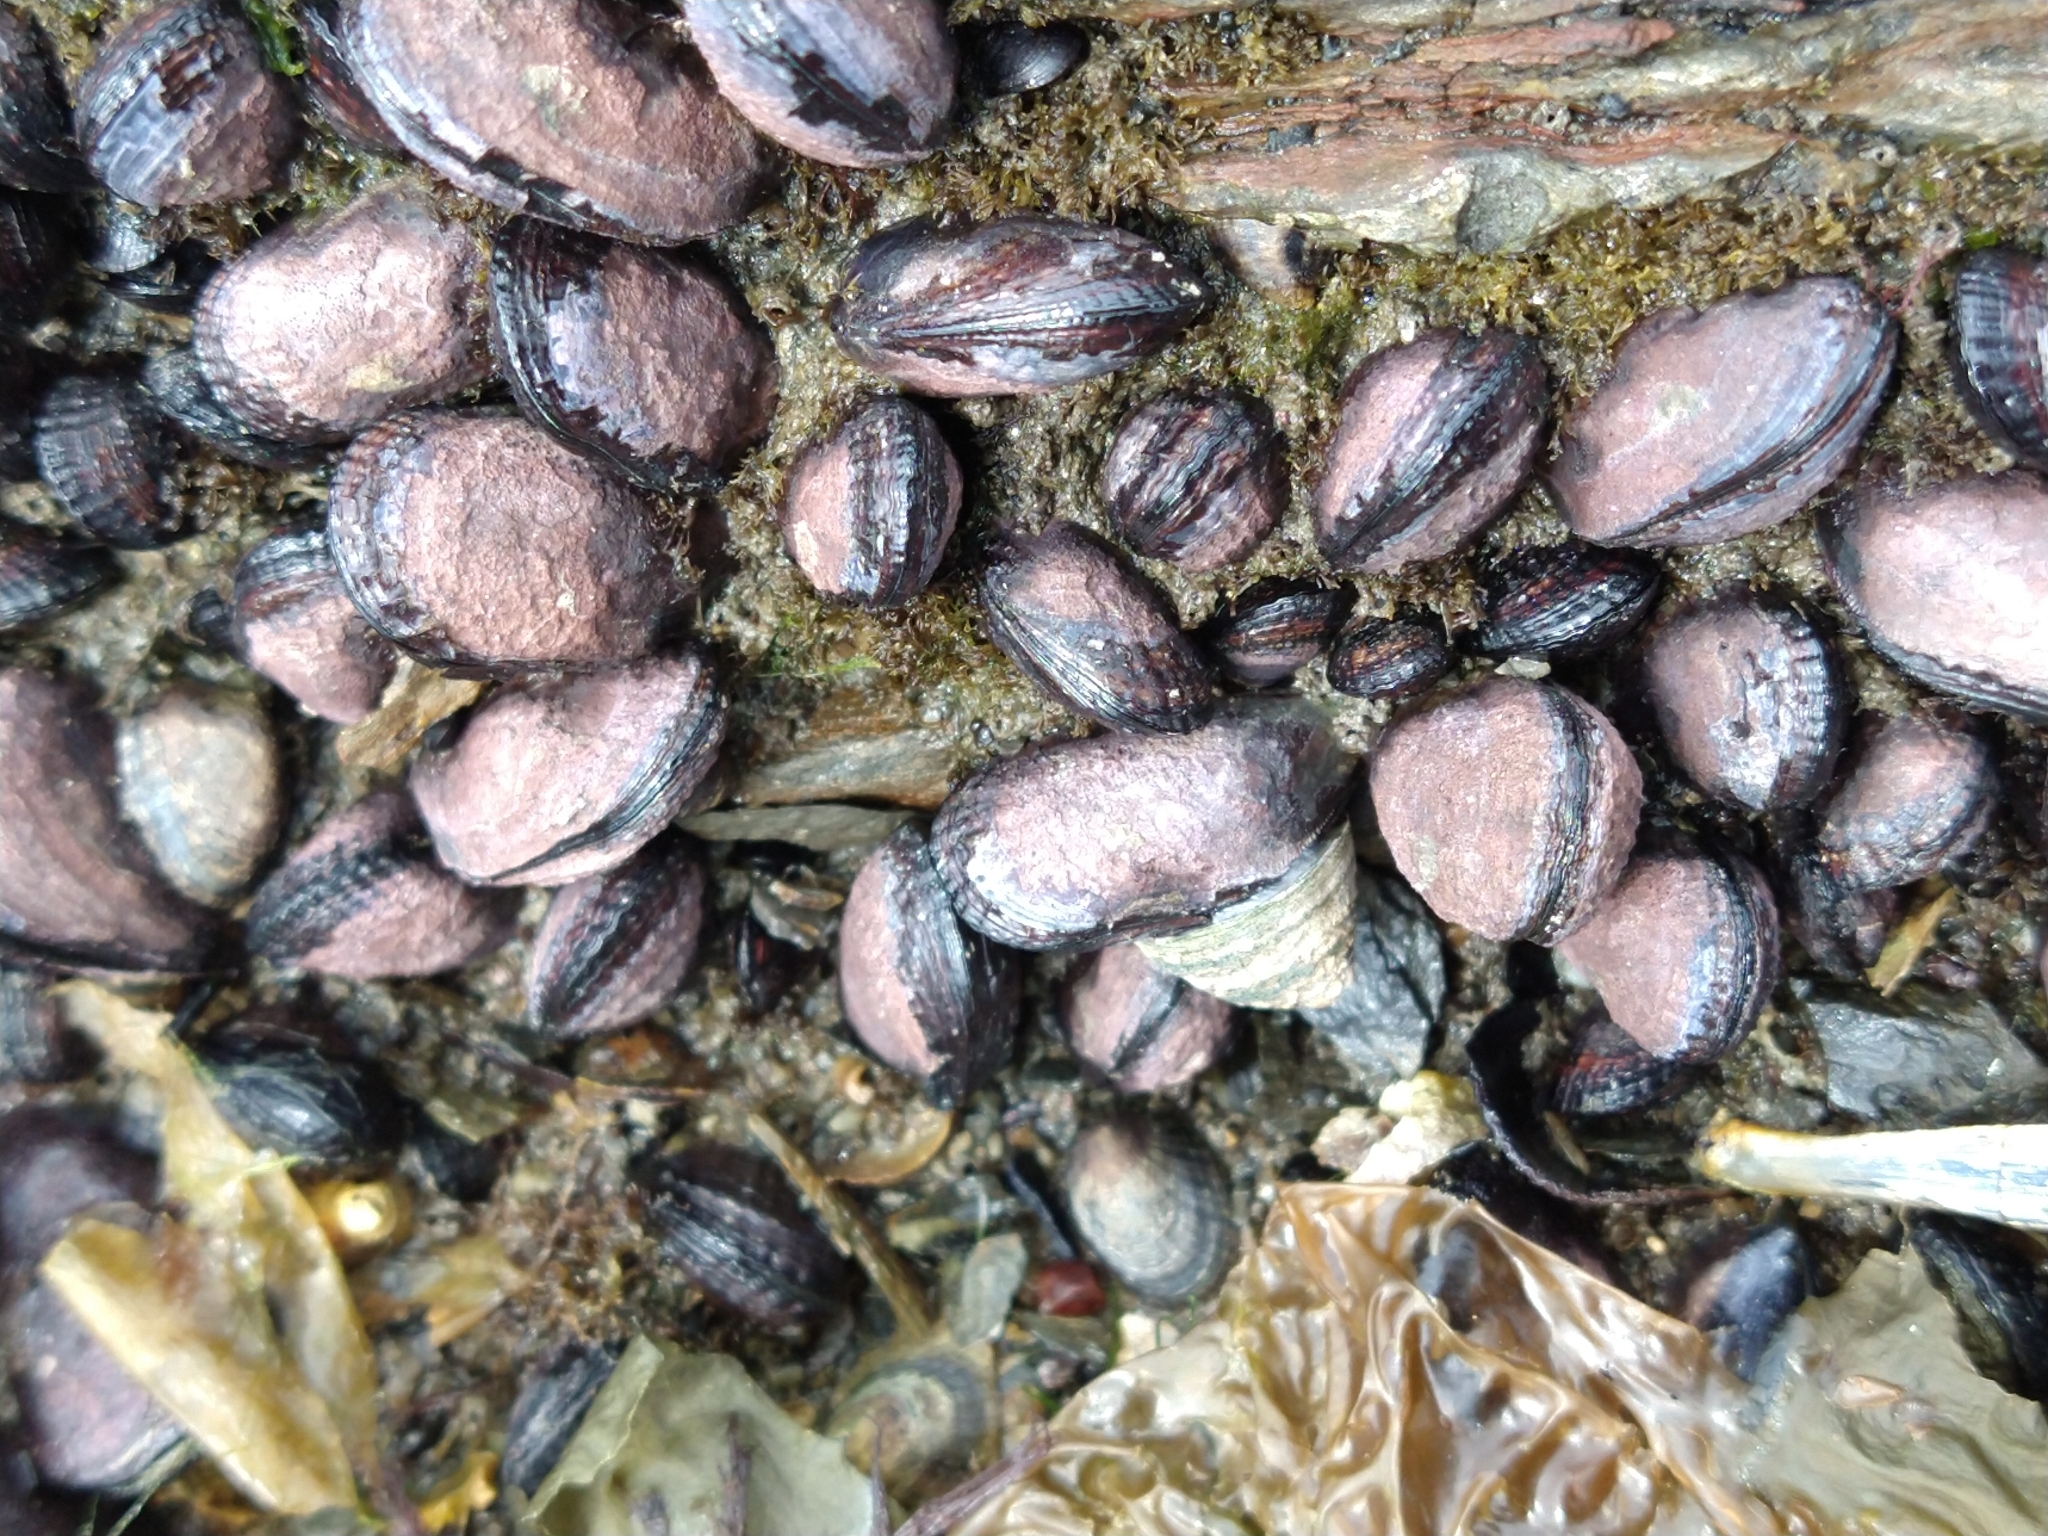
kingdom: Animalia
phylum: Mollusca
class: Bivalvia
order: Mytilida
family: Mytilidae
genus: Perumytilus
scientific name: Perumytilus purpuratus
